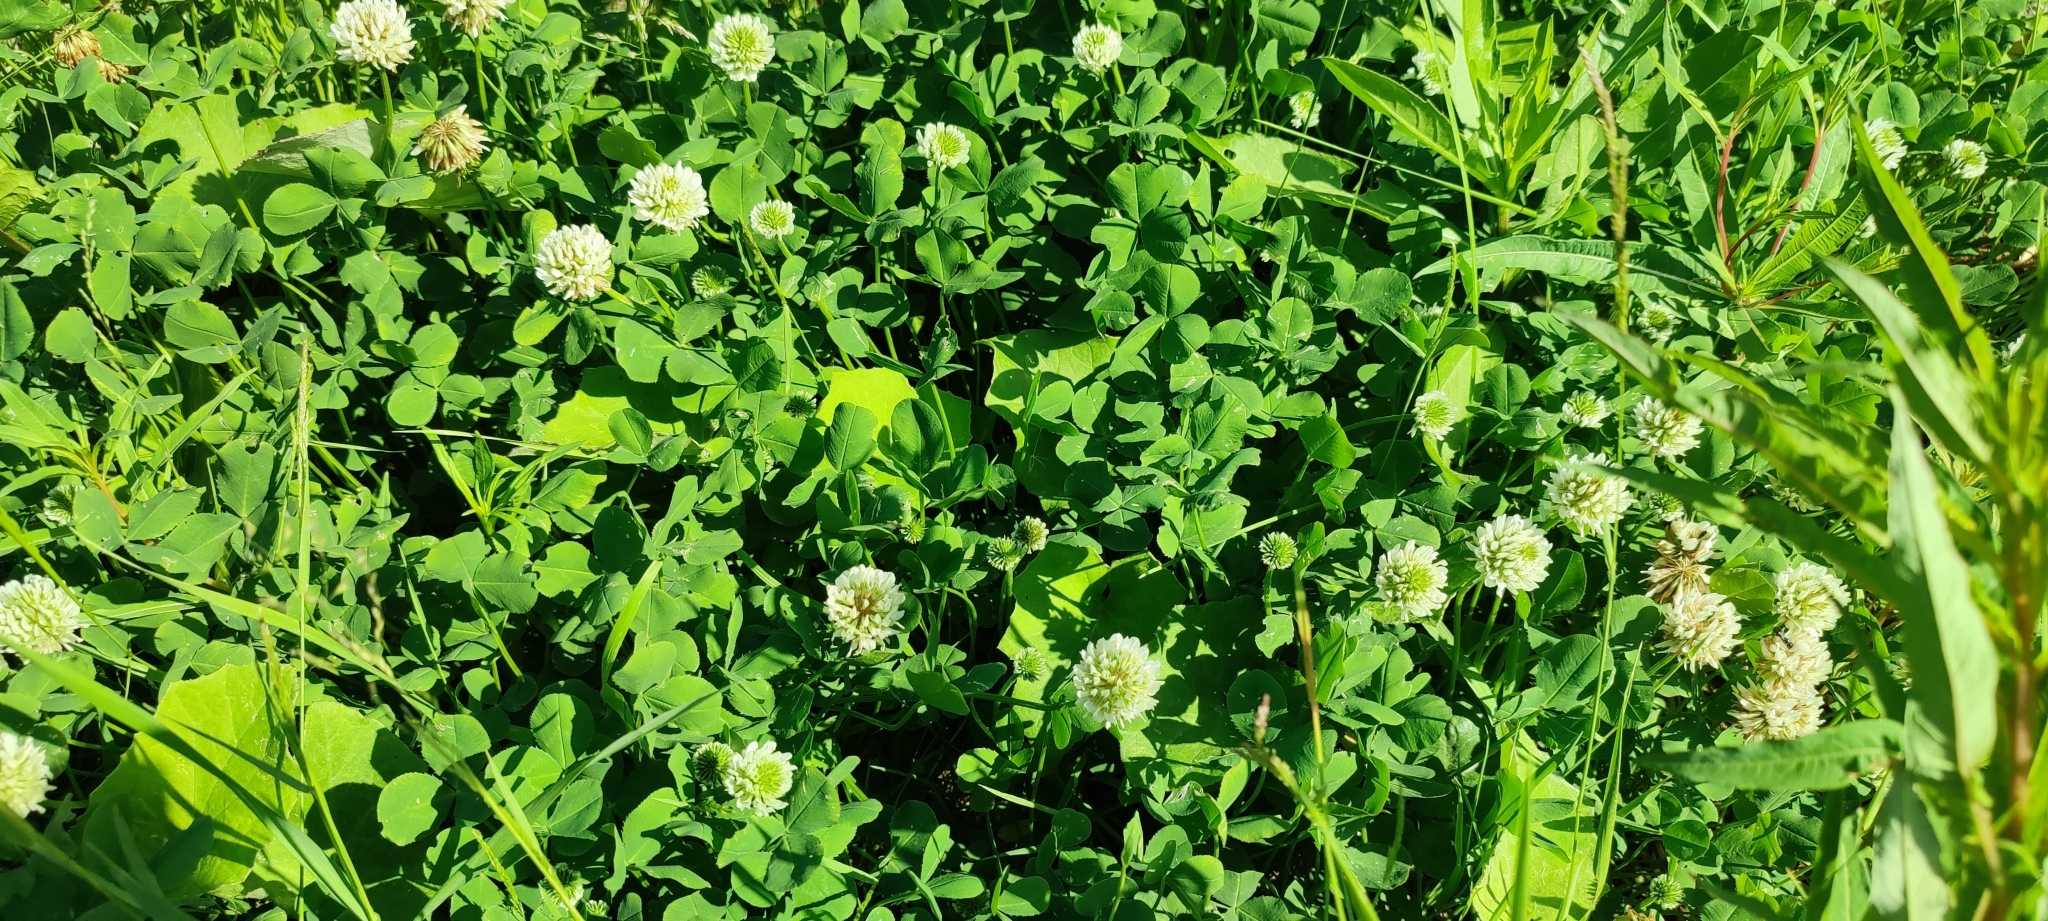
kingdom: Plantae
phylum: Tracheophyta
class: Magnoliopsida
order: Fabales
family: Fabaceae
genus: Trifolium
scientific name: Trifolium repens
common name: White clover
